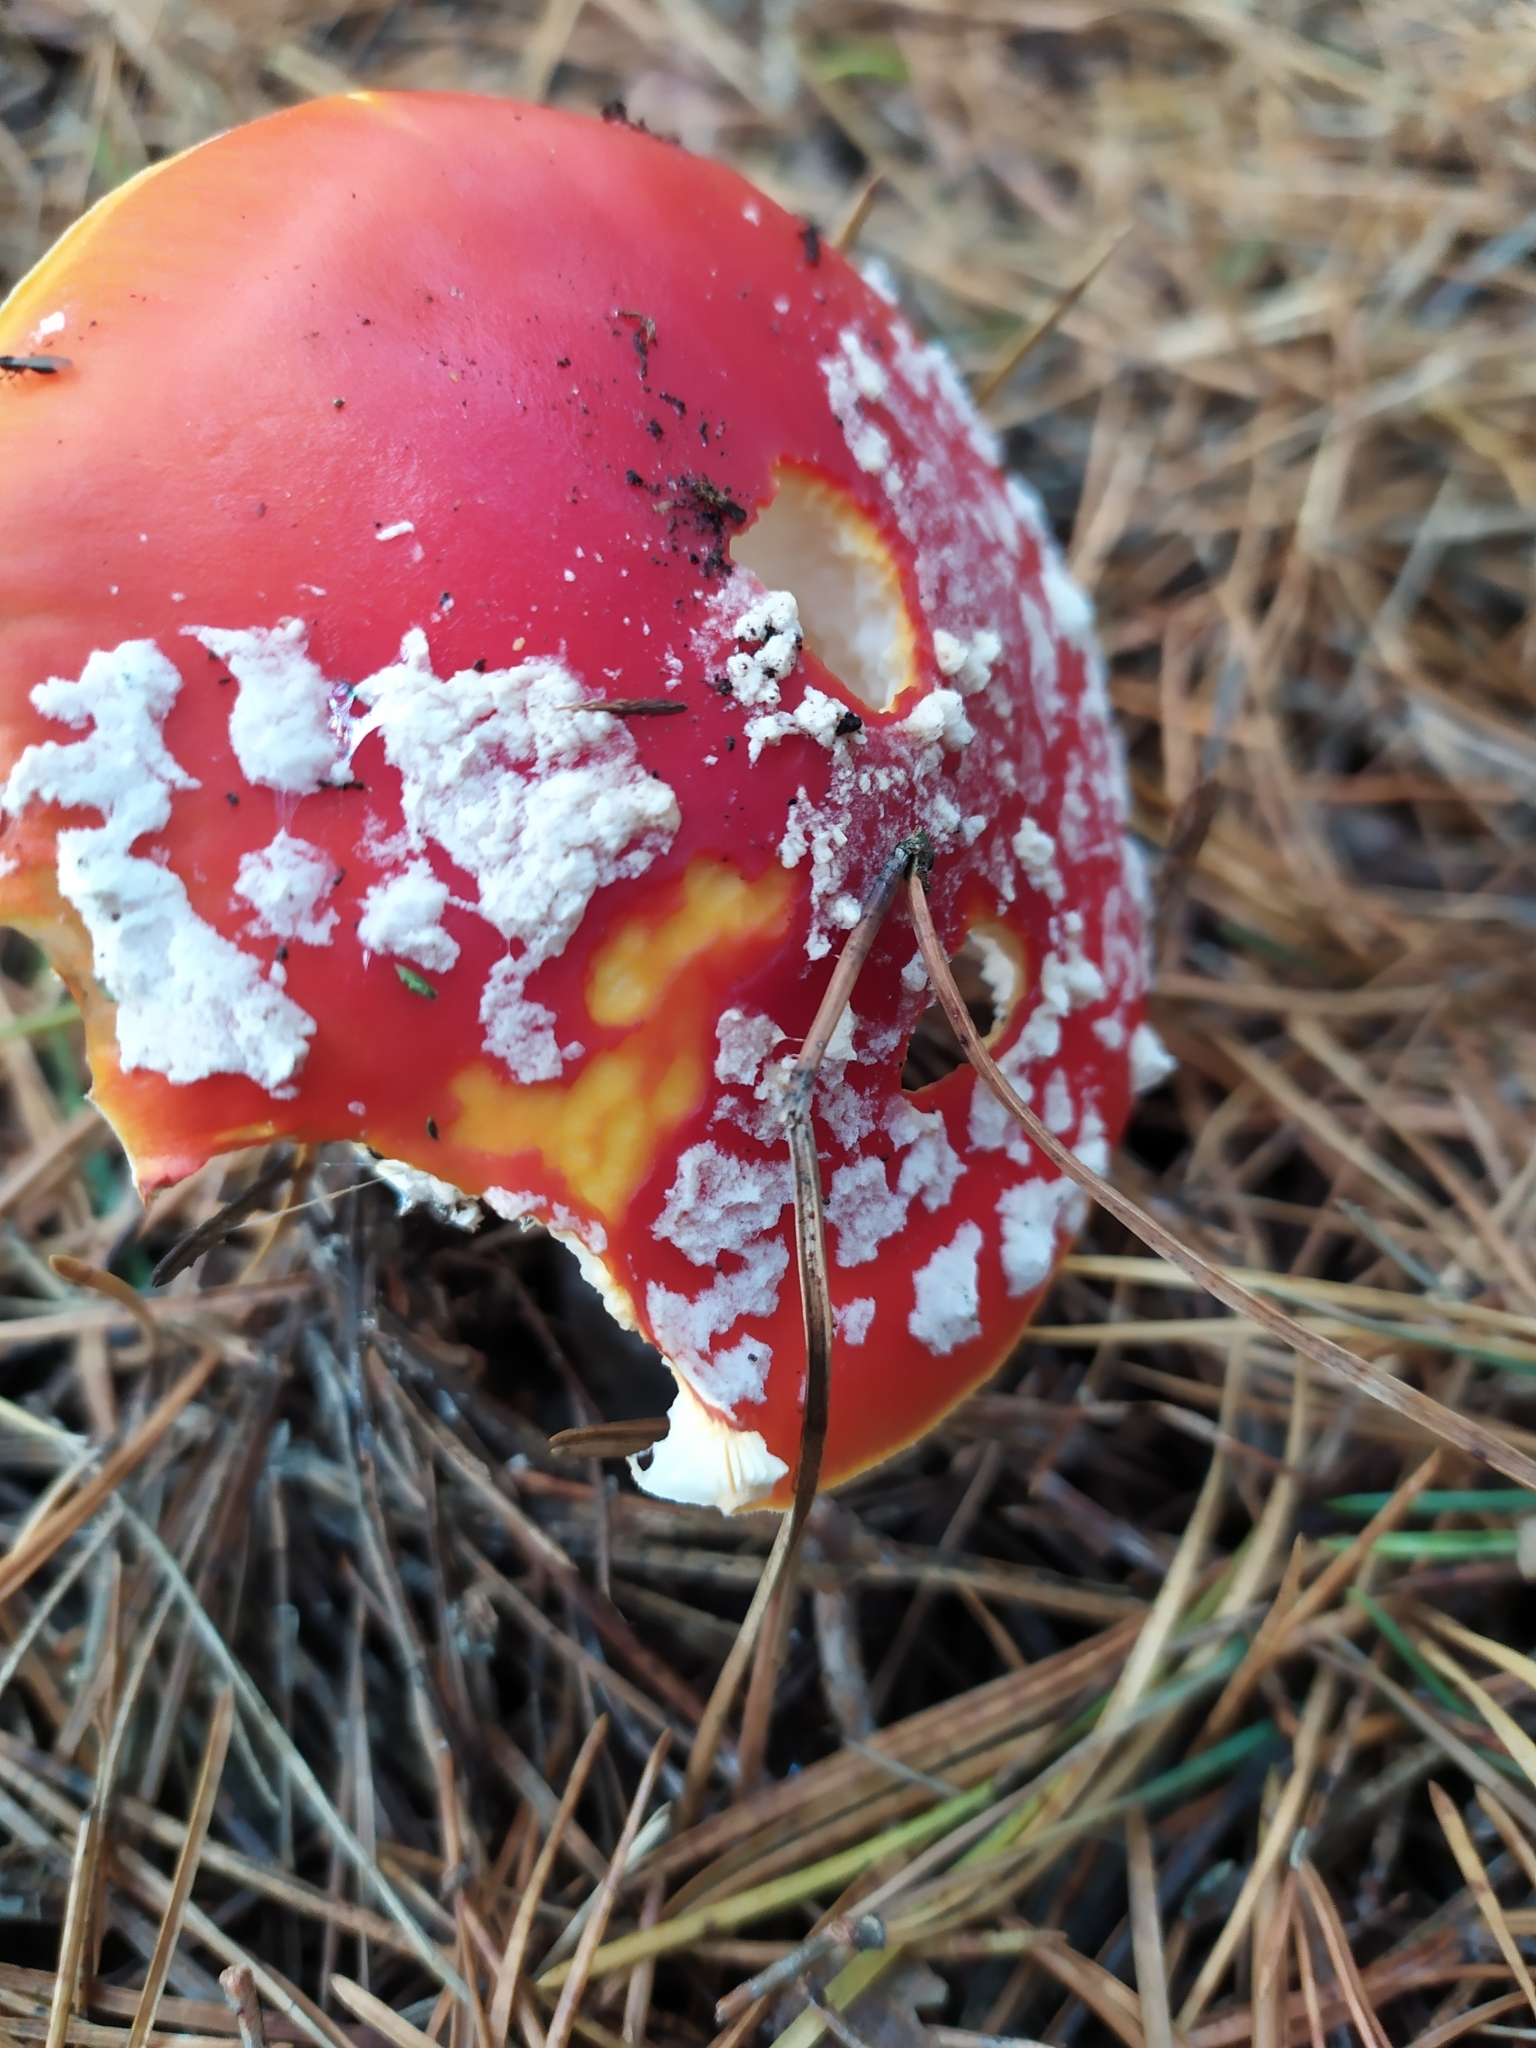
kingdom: Fungi
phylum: Basidiomycota
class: Agaricomycetes
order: Agaricales
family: Amanitaceae
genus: Amanita
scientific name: Amanita muscaria
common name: Fly agaric
